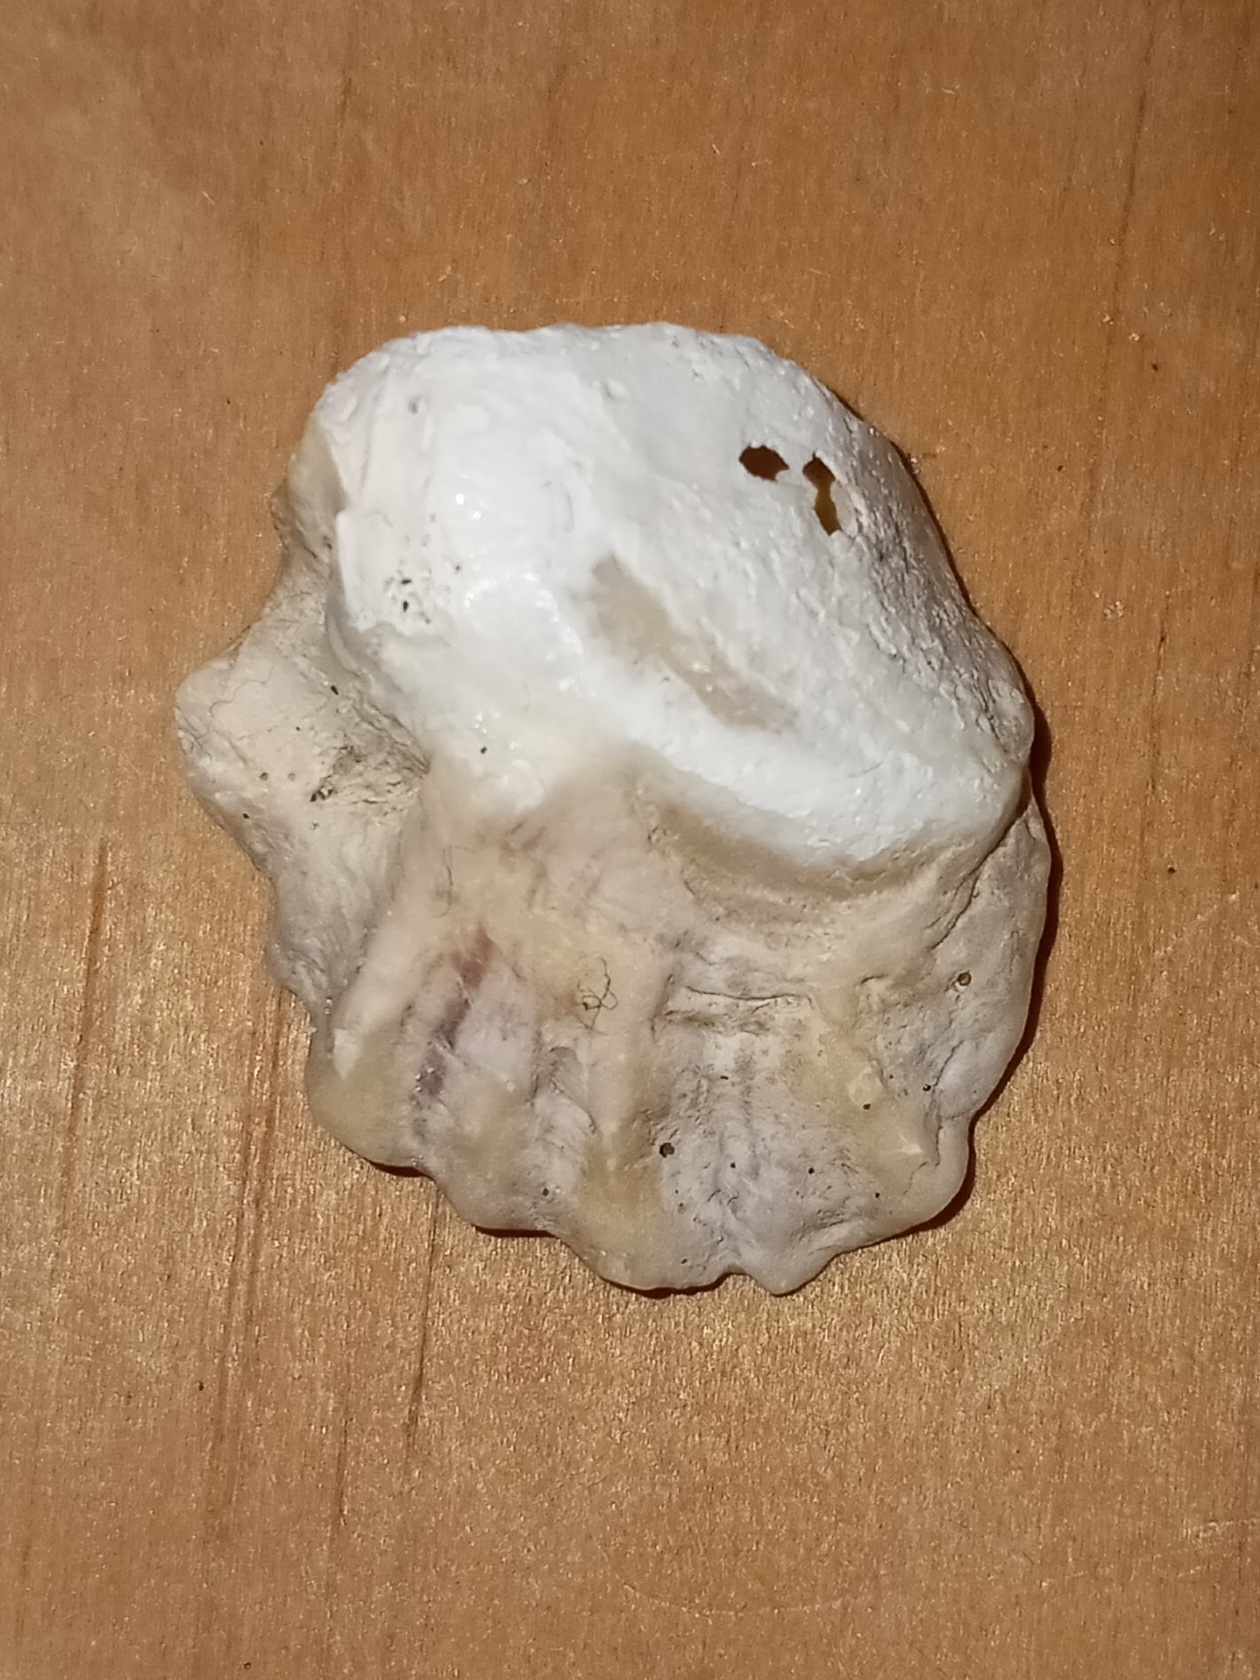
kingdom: Animalia
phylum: Mollusca
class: Bivalvia
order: Pectinida
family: Plicatulidae
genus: Plicatula
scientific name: Plicatula gibbosa
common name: Atlantic kitten's paw
